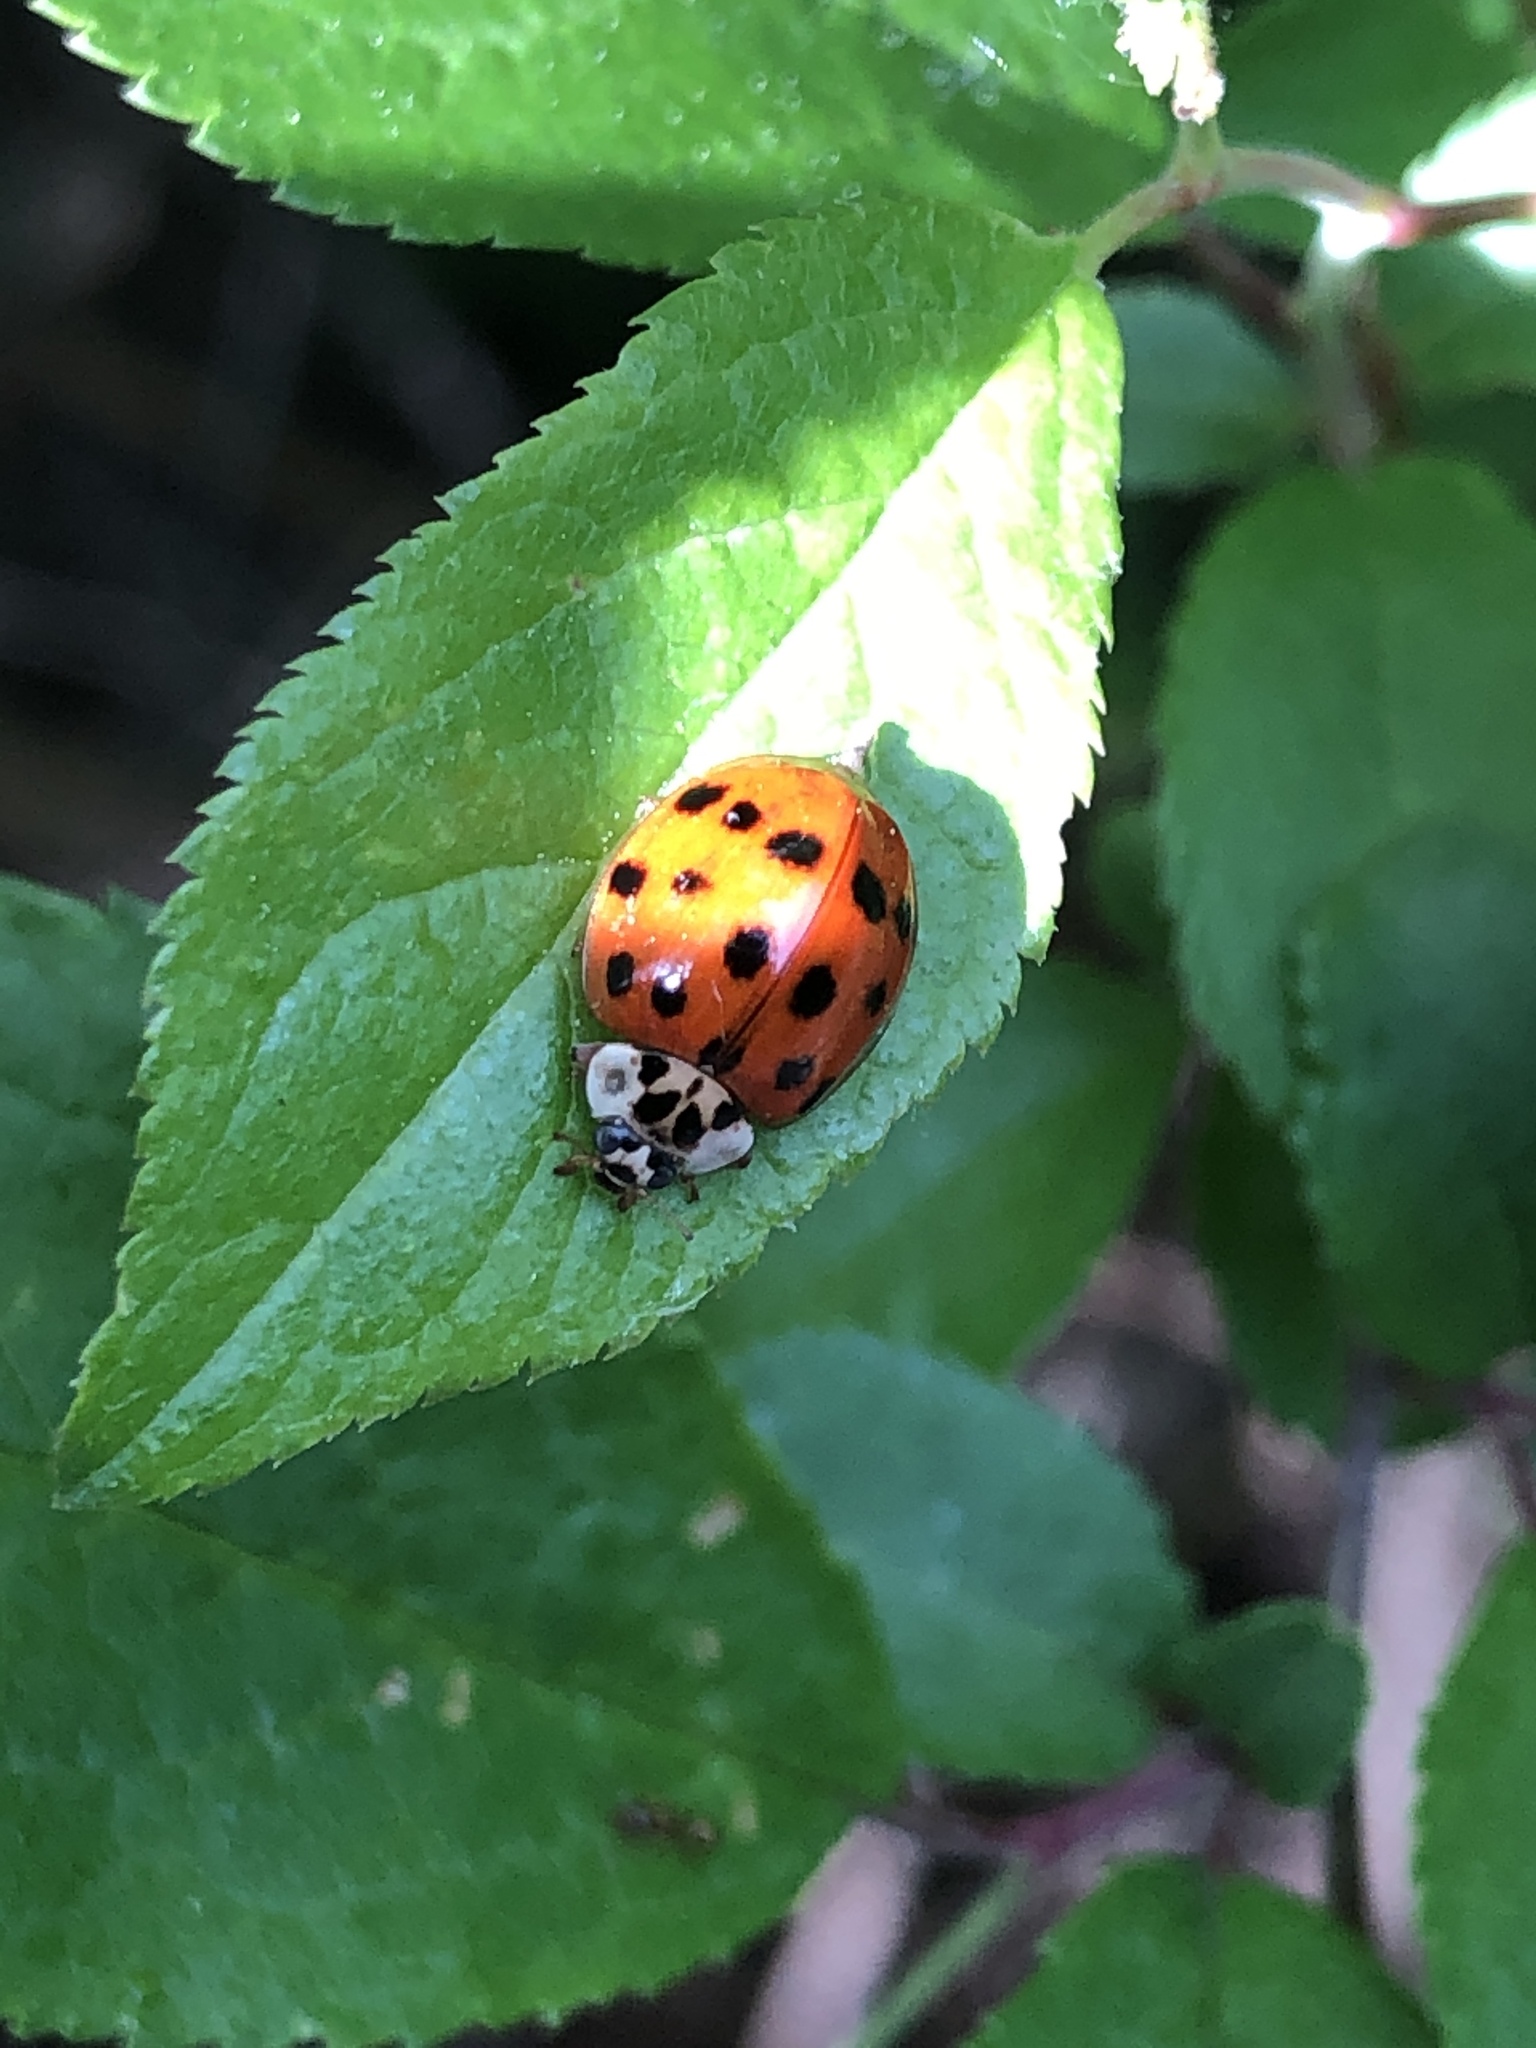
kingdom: Animalia
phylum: Arthropoda
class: Insecta
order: Coleoptera
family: Coccinellidae
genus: Harmonia
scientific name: Harmonia axyridis
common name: Harlequin ladybird
